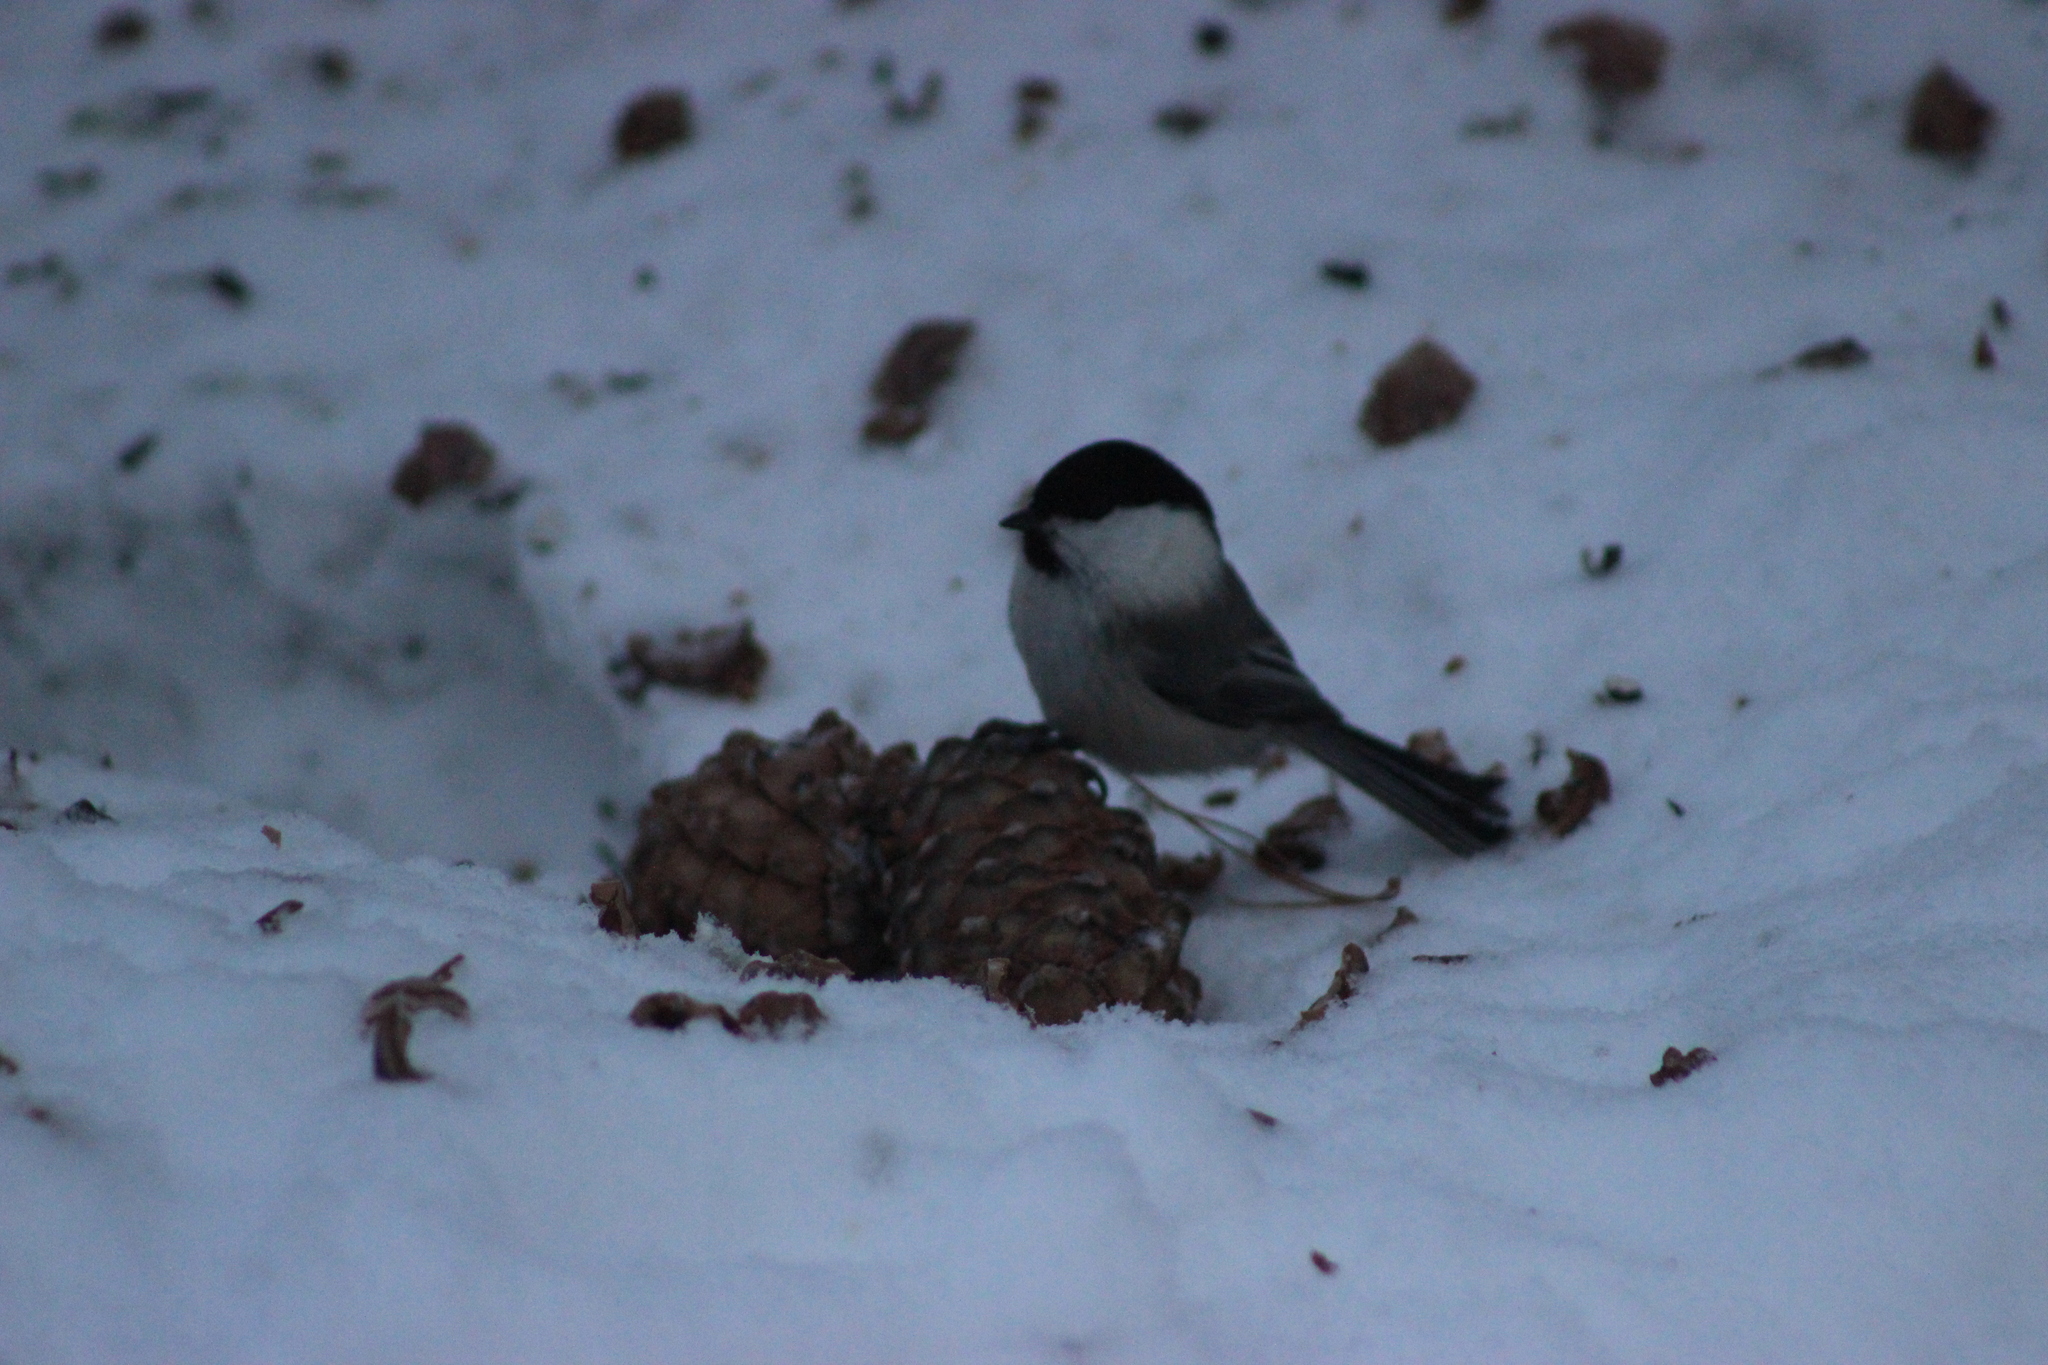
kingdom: Animalia
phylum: Chordata
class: Aves
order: Passeriformes
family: Paridae
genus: Poecile
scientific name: Poecile montanus
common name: Willow tit
